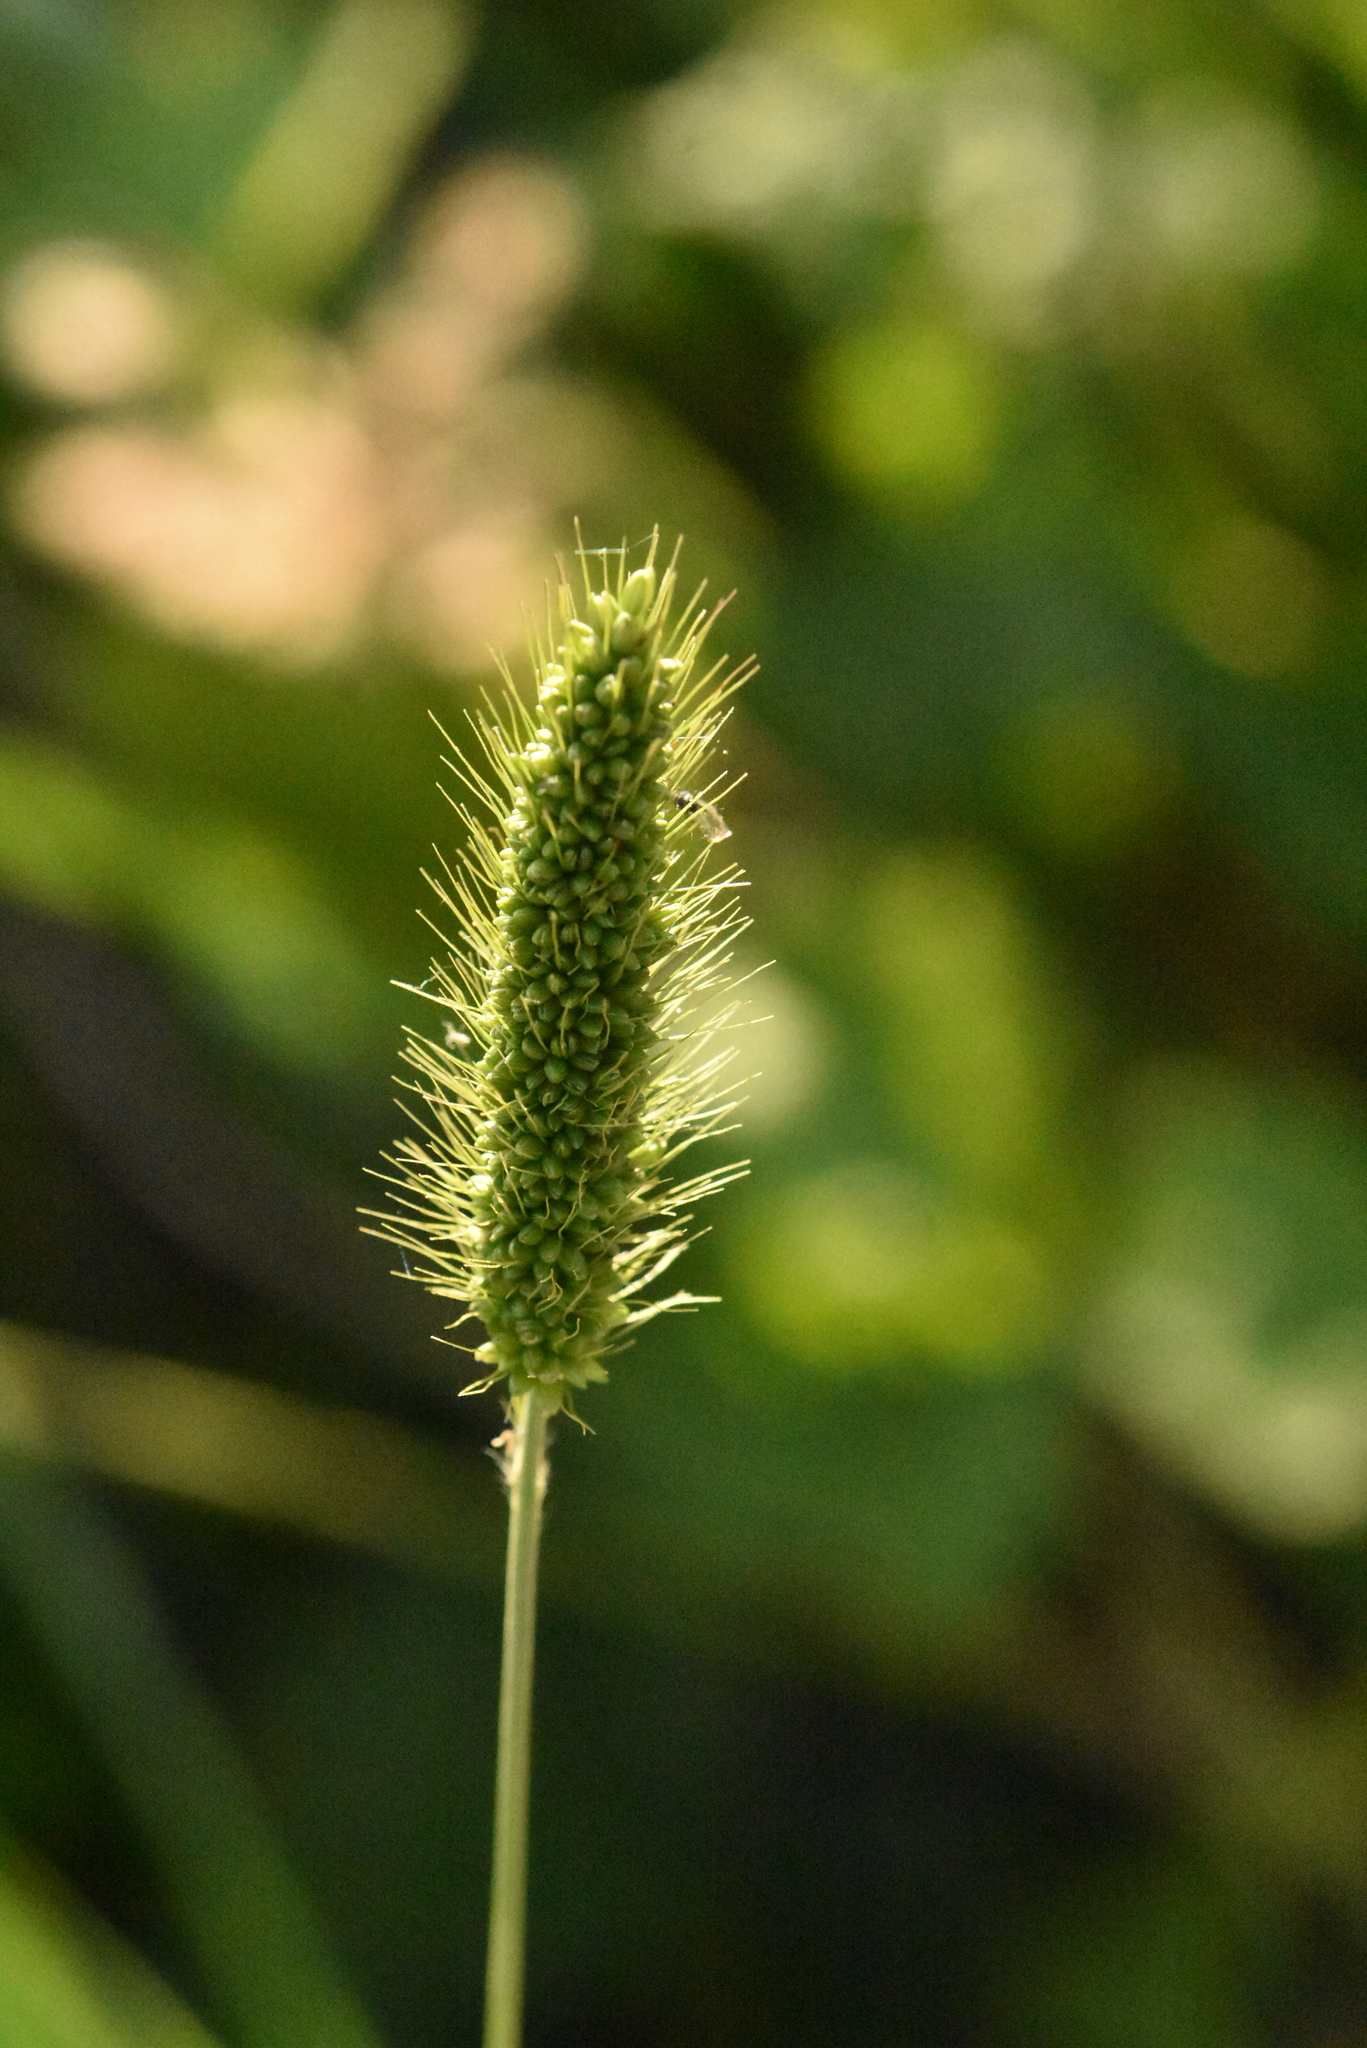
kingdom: Plantae
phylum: Tracheophyta
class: Liliopsida
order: Poales
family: Poaceae
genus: Setaria
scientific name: Setaria viridis
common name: Green bristlegrass
